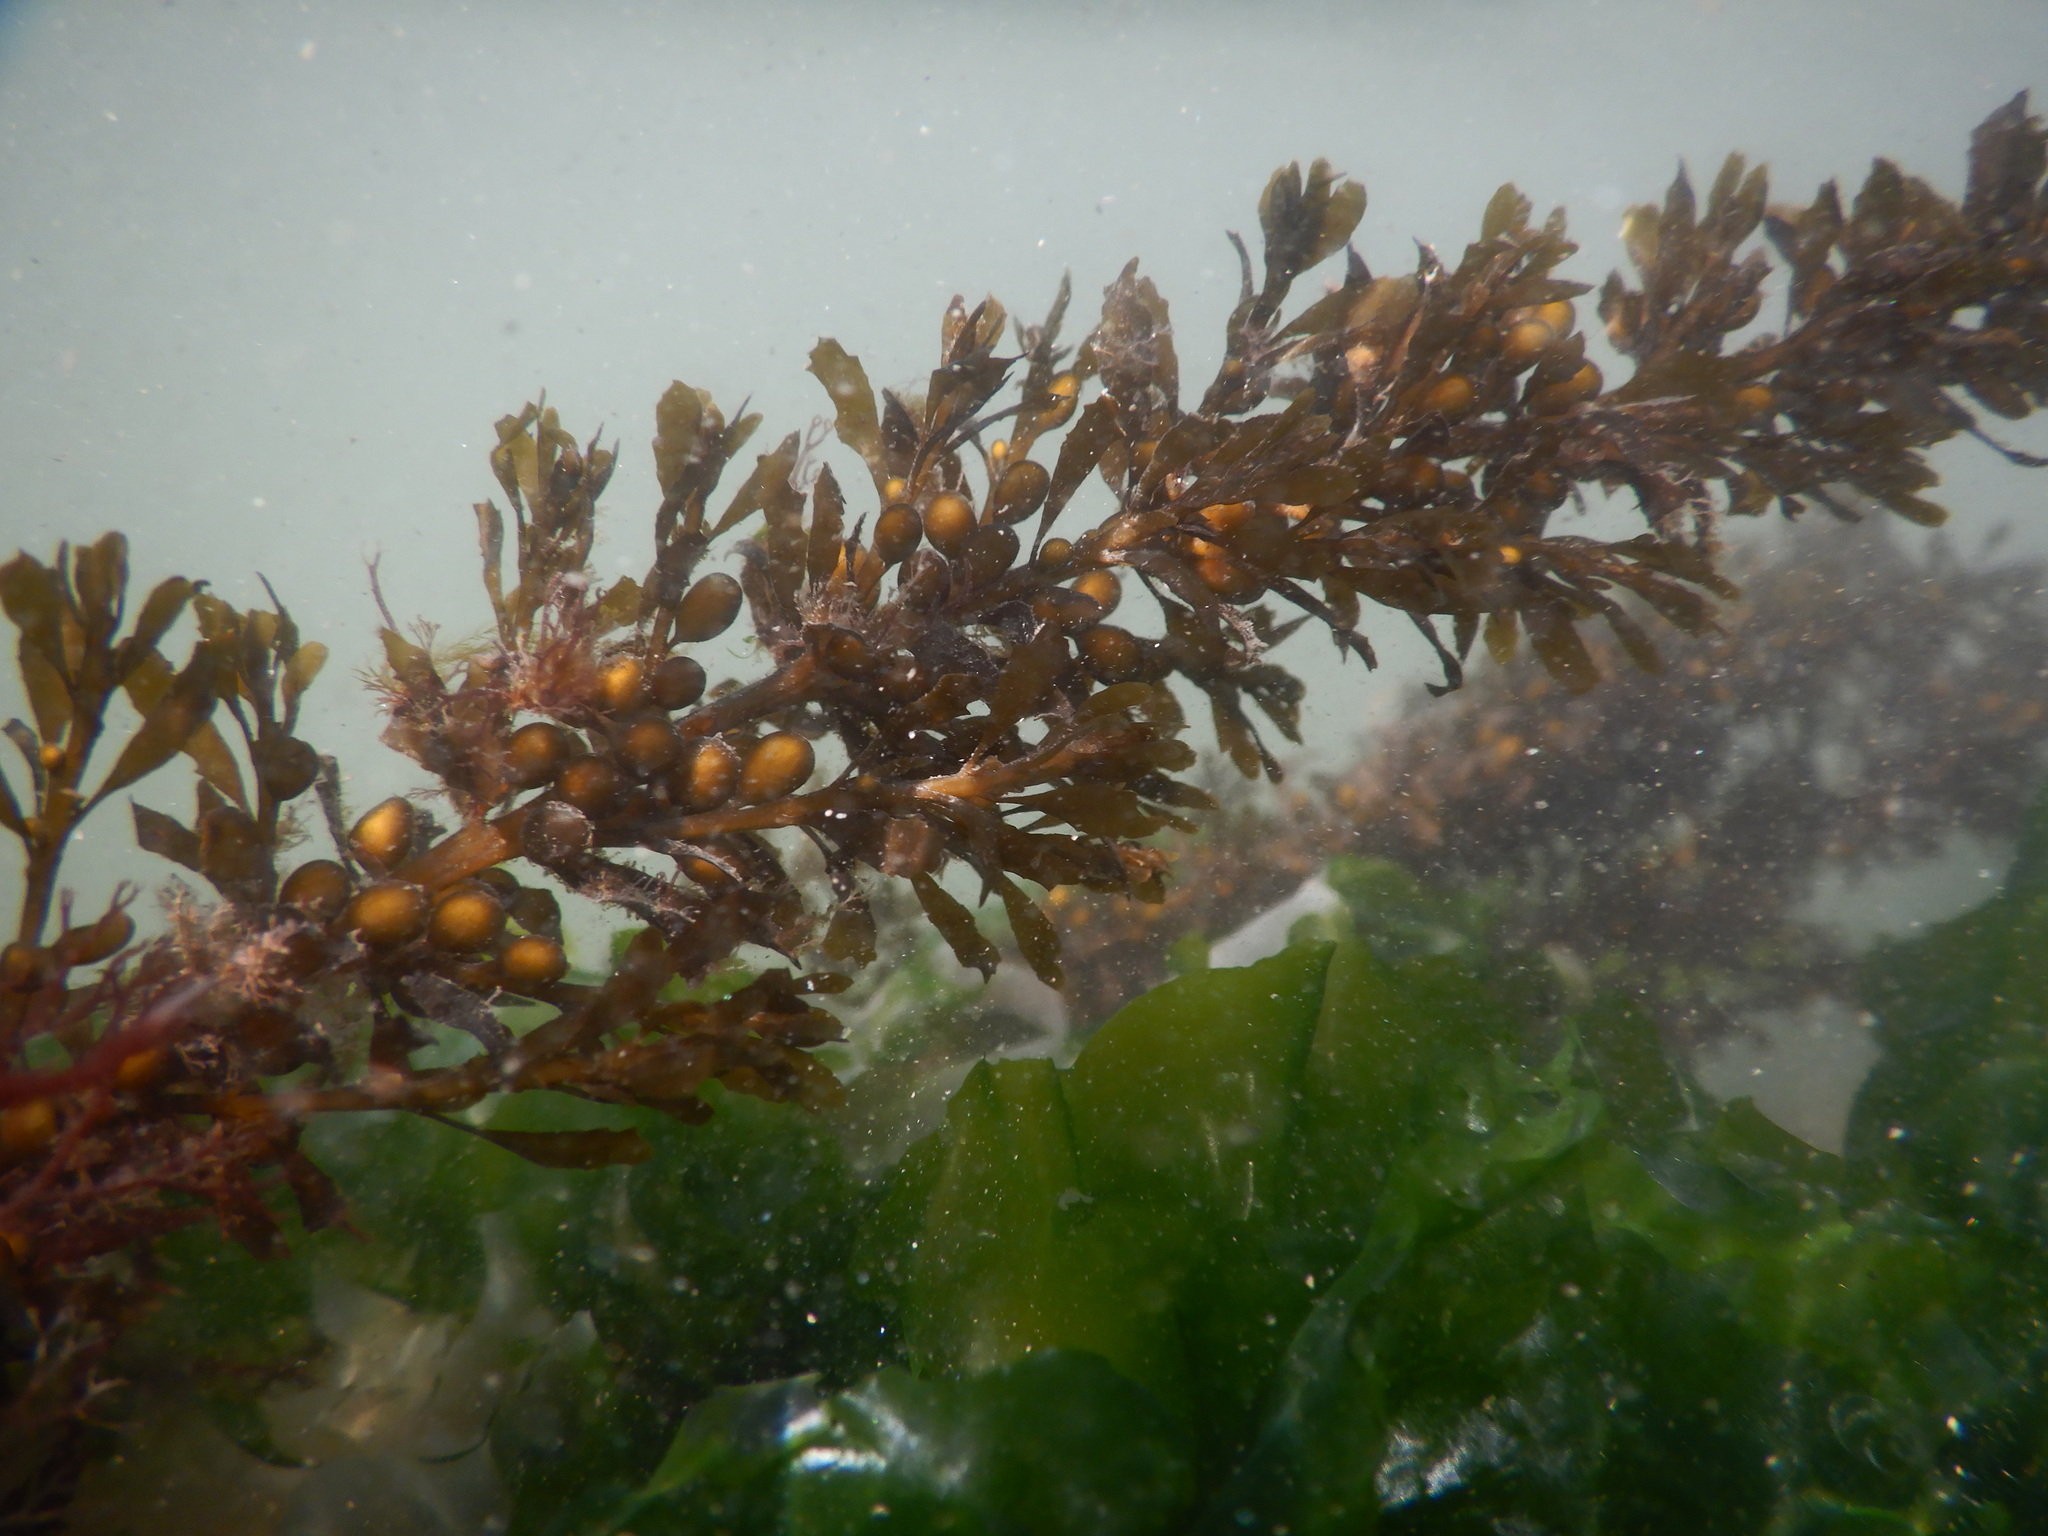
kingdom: Chromista
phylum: Ochrophyta
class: Phaeophyceae
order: Fucales
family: Sargassaceae
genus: Sargassum
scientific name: Sargassum muticum
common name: Japweed
